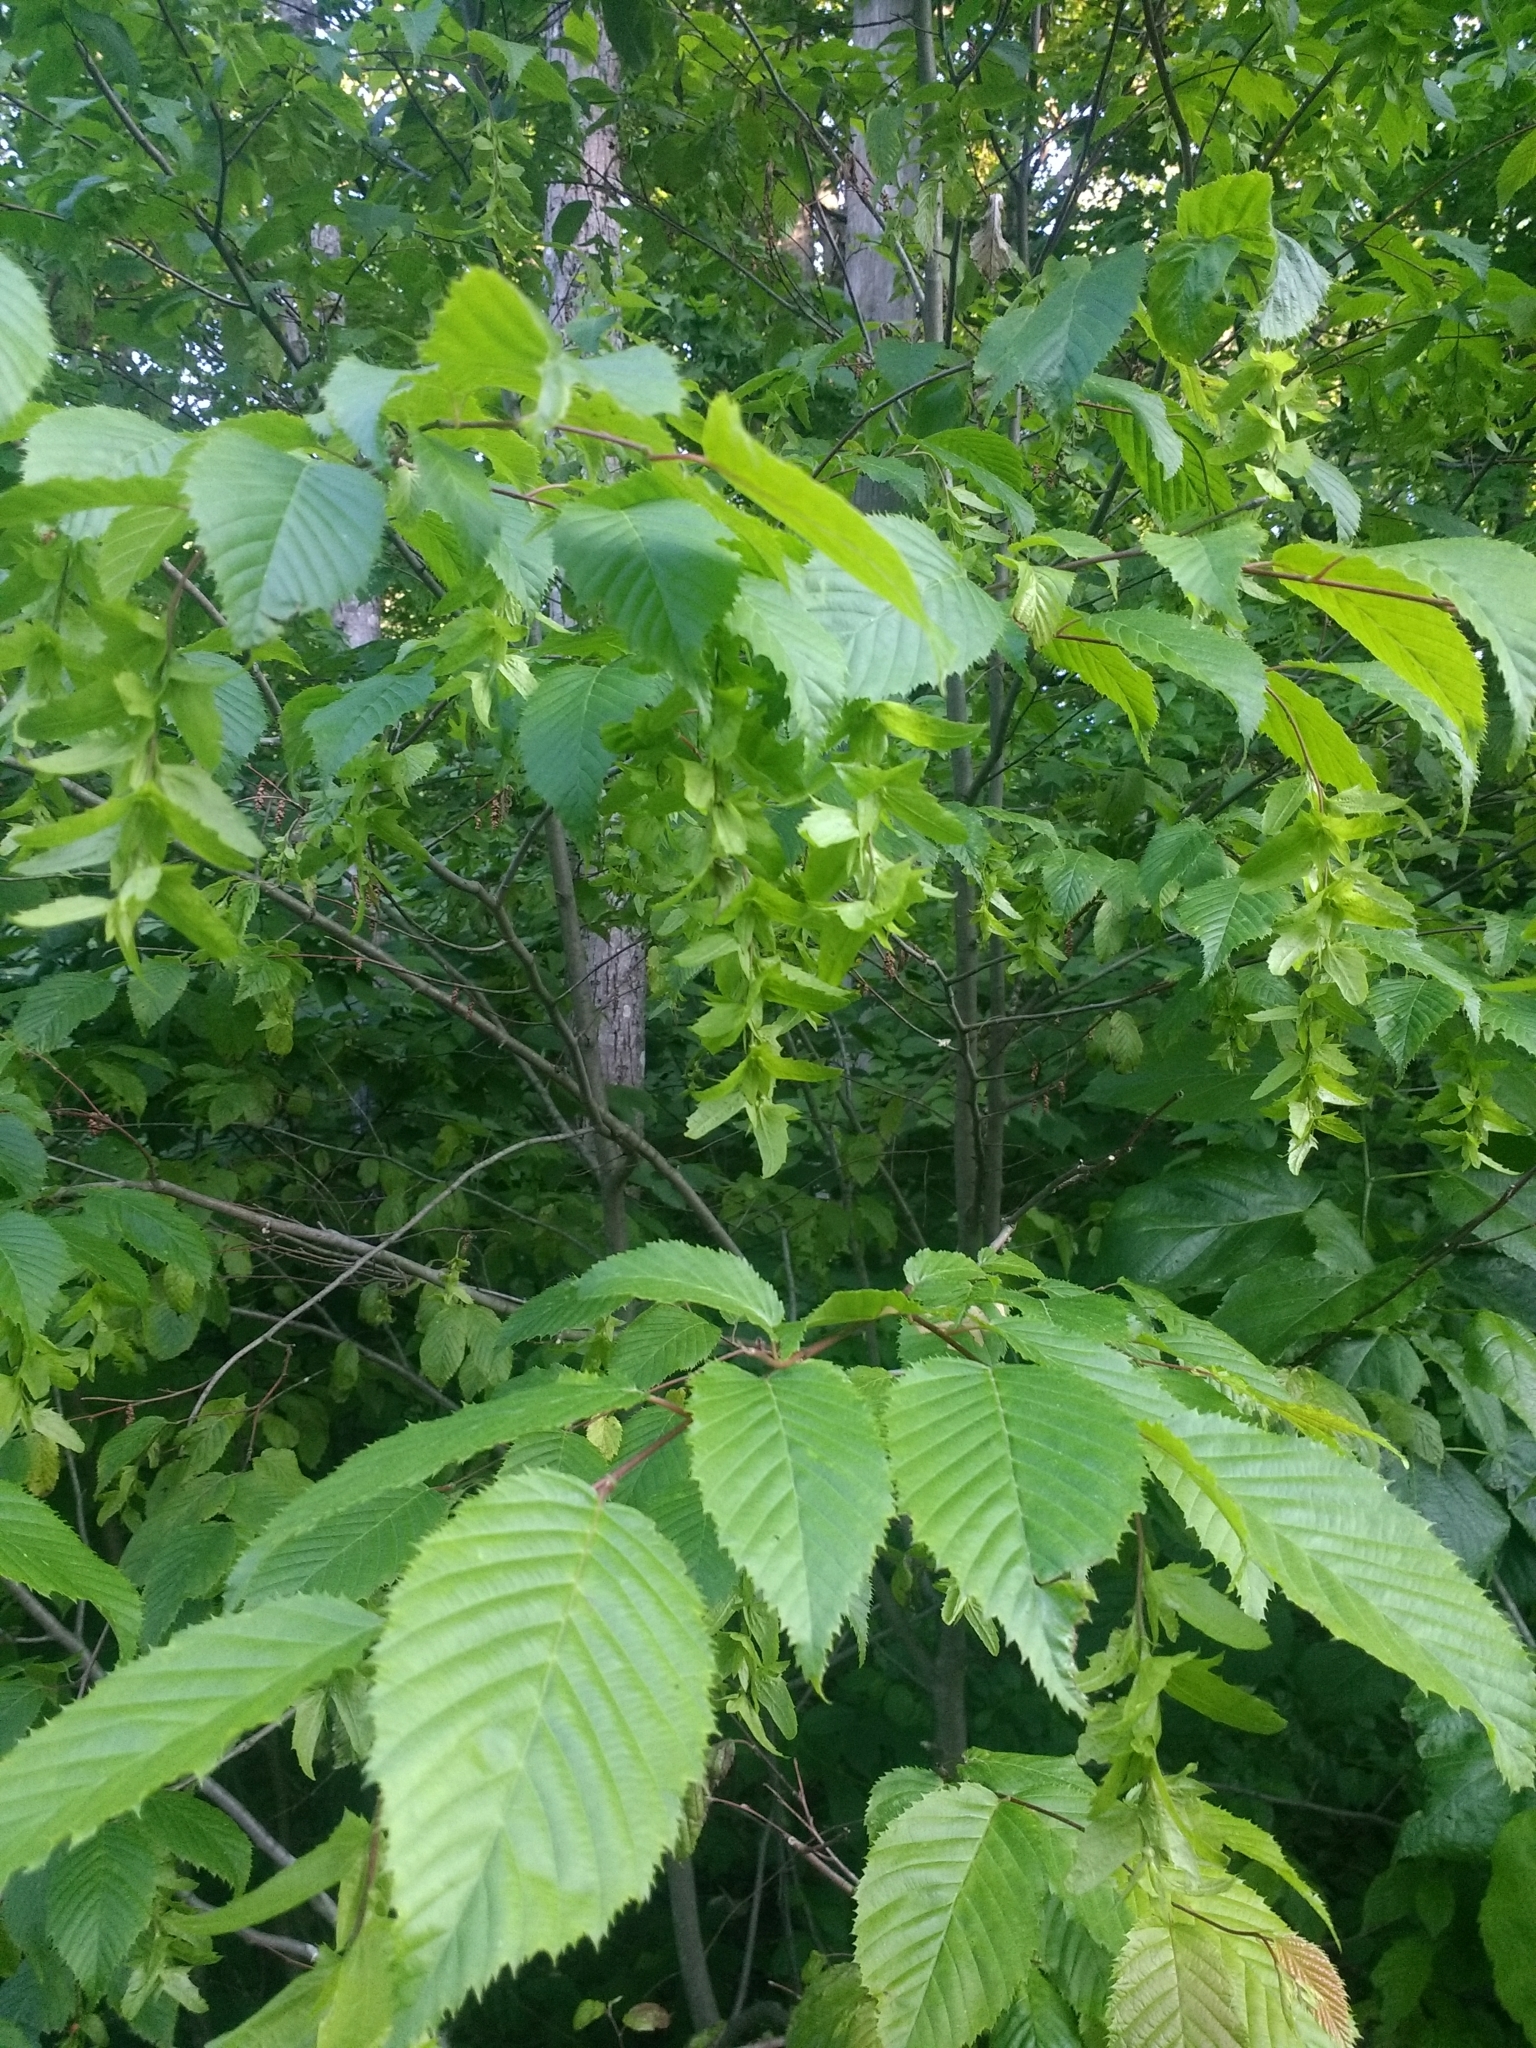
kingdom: Plantae
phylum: Tracheophyta
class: Magnoliopsida
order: Fagales
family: Betulaceae
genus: Carpinus
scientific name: Carpinus caroliniana
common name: American hornbeam
